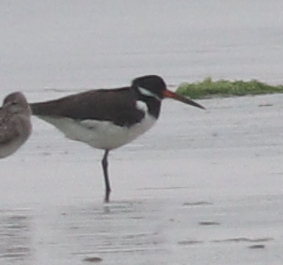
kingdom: Animalia
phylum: Chordata
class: Aves
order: Charadriiformes
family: Haematopodidae
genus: Haematopus
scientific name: Haematopus ostralegus
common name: Eurasian oystercatcher
